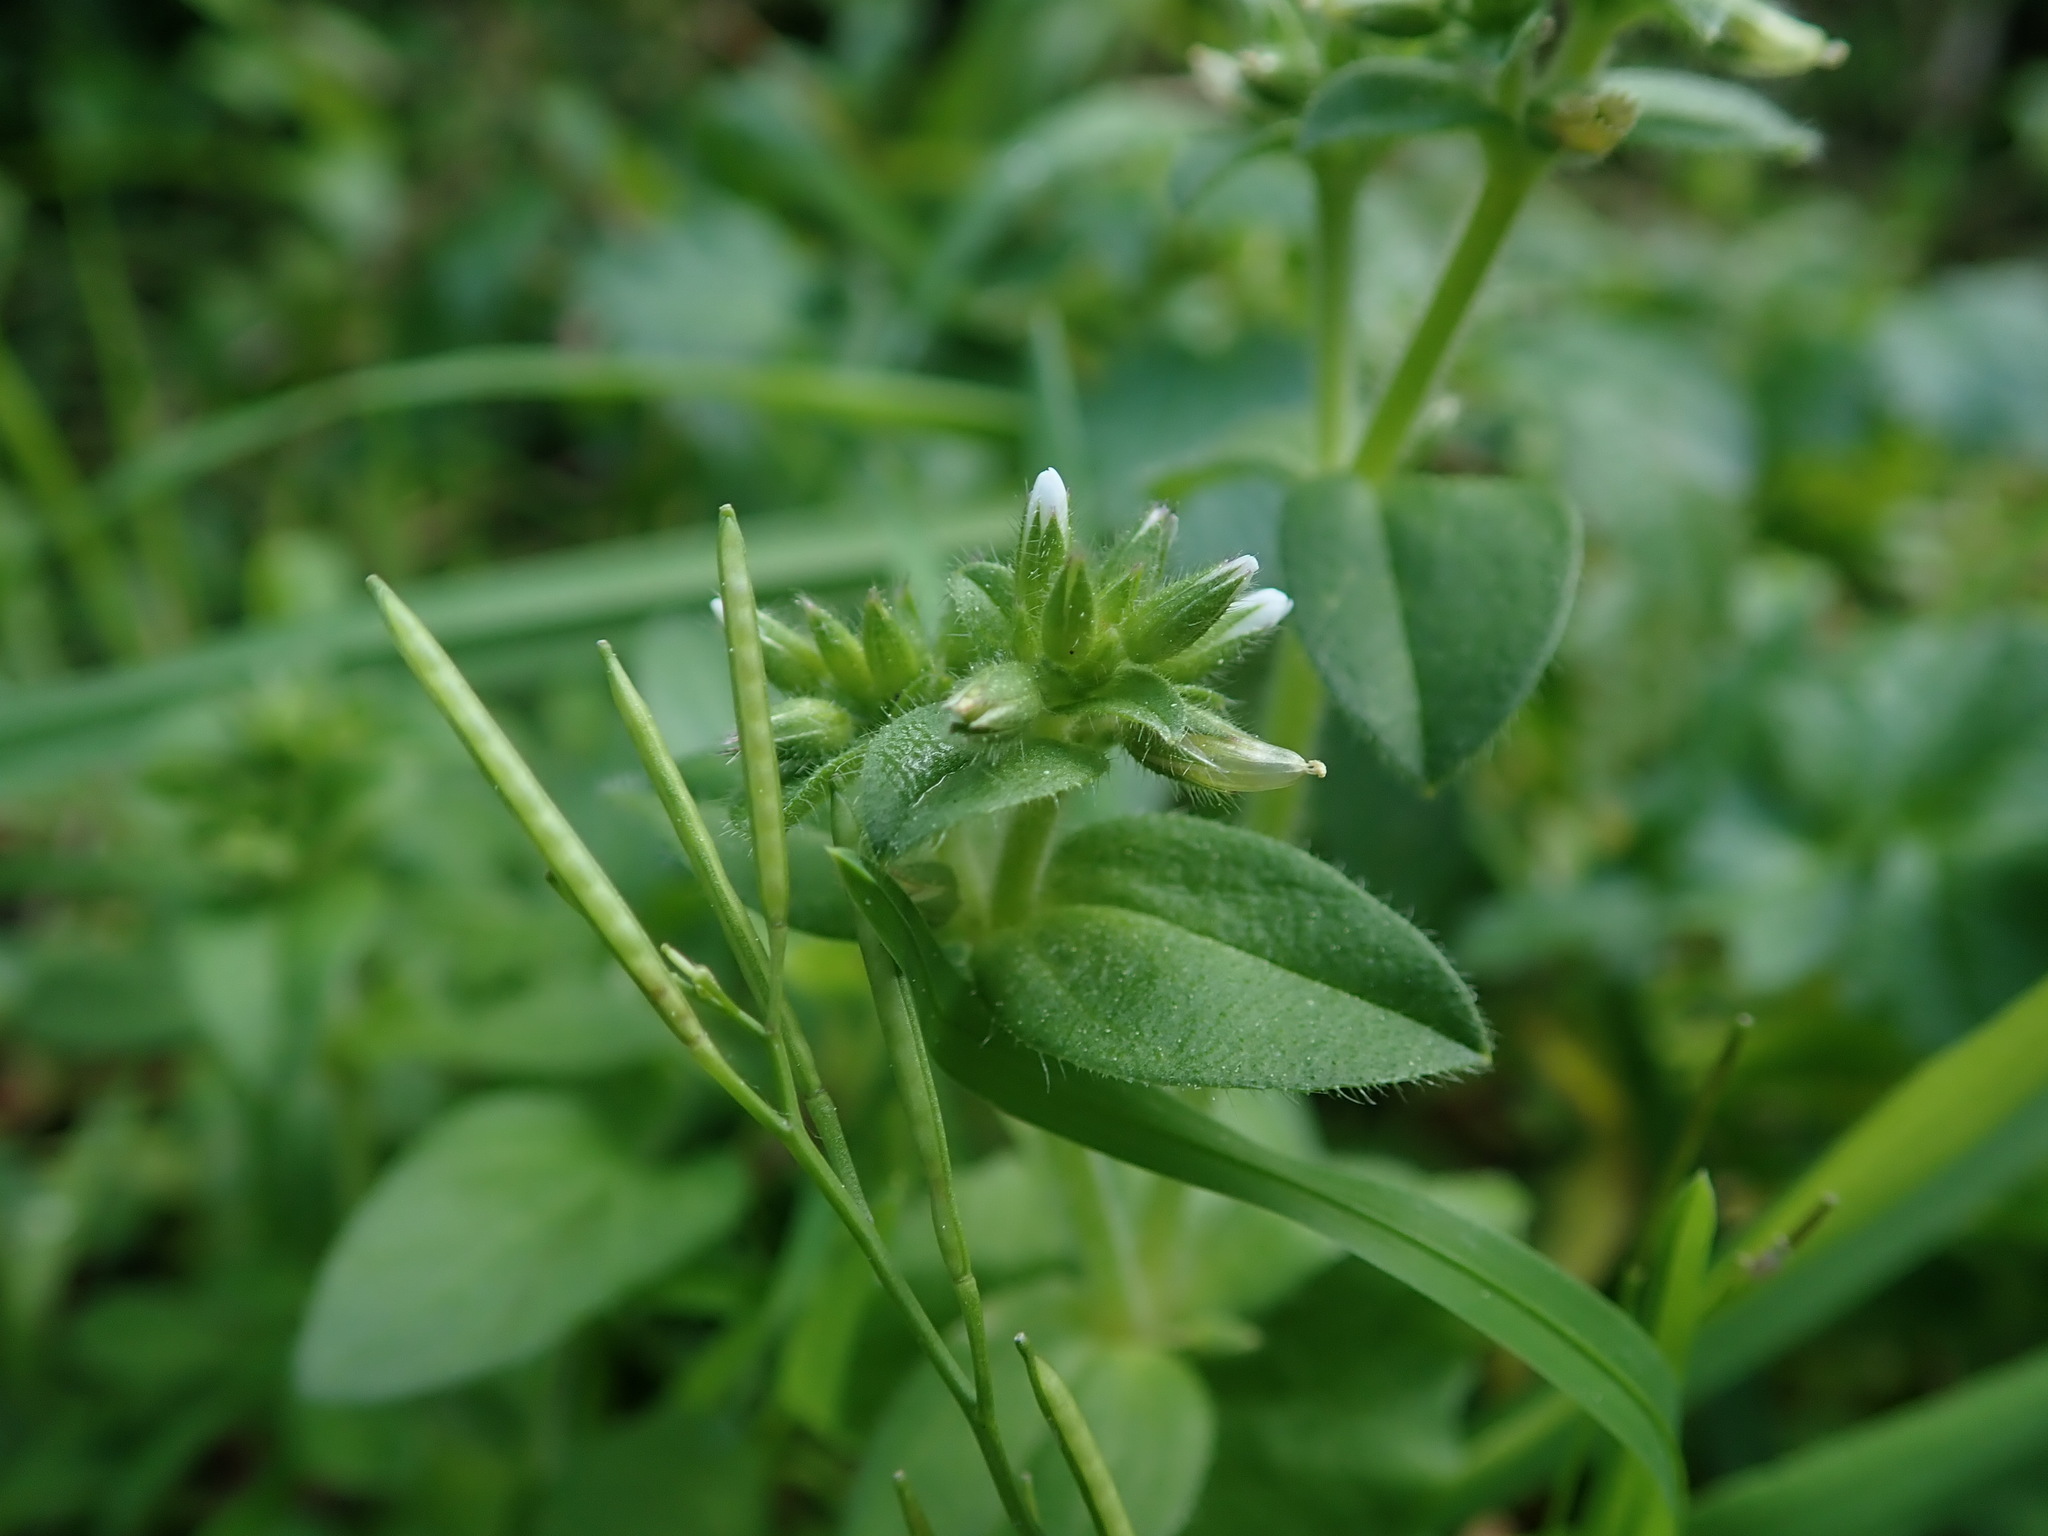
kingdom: Plantae
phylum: Tracheophyta
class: Magnoliopsida
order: Caryophyllales
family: Caryophyllaceae
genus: Cerastium
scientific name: Cerastium glomeratum
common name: Sticky chickweed
